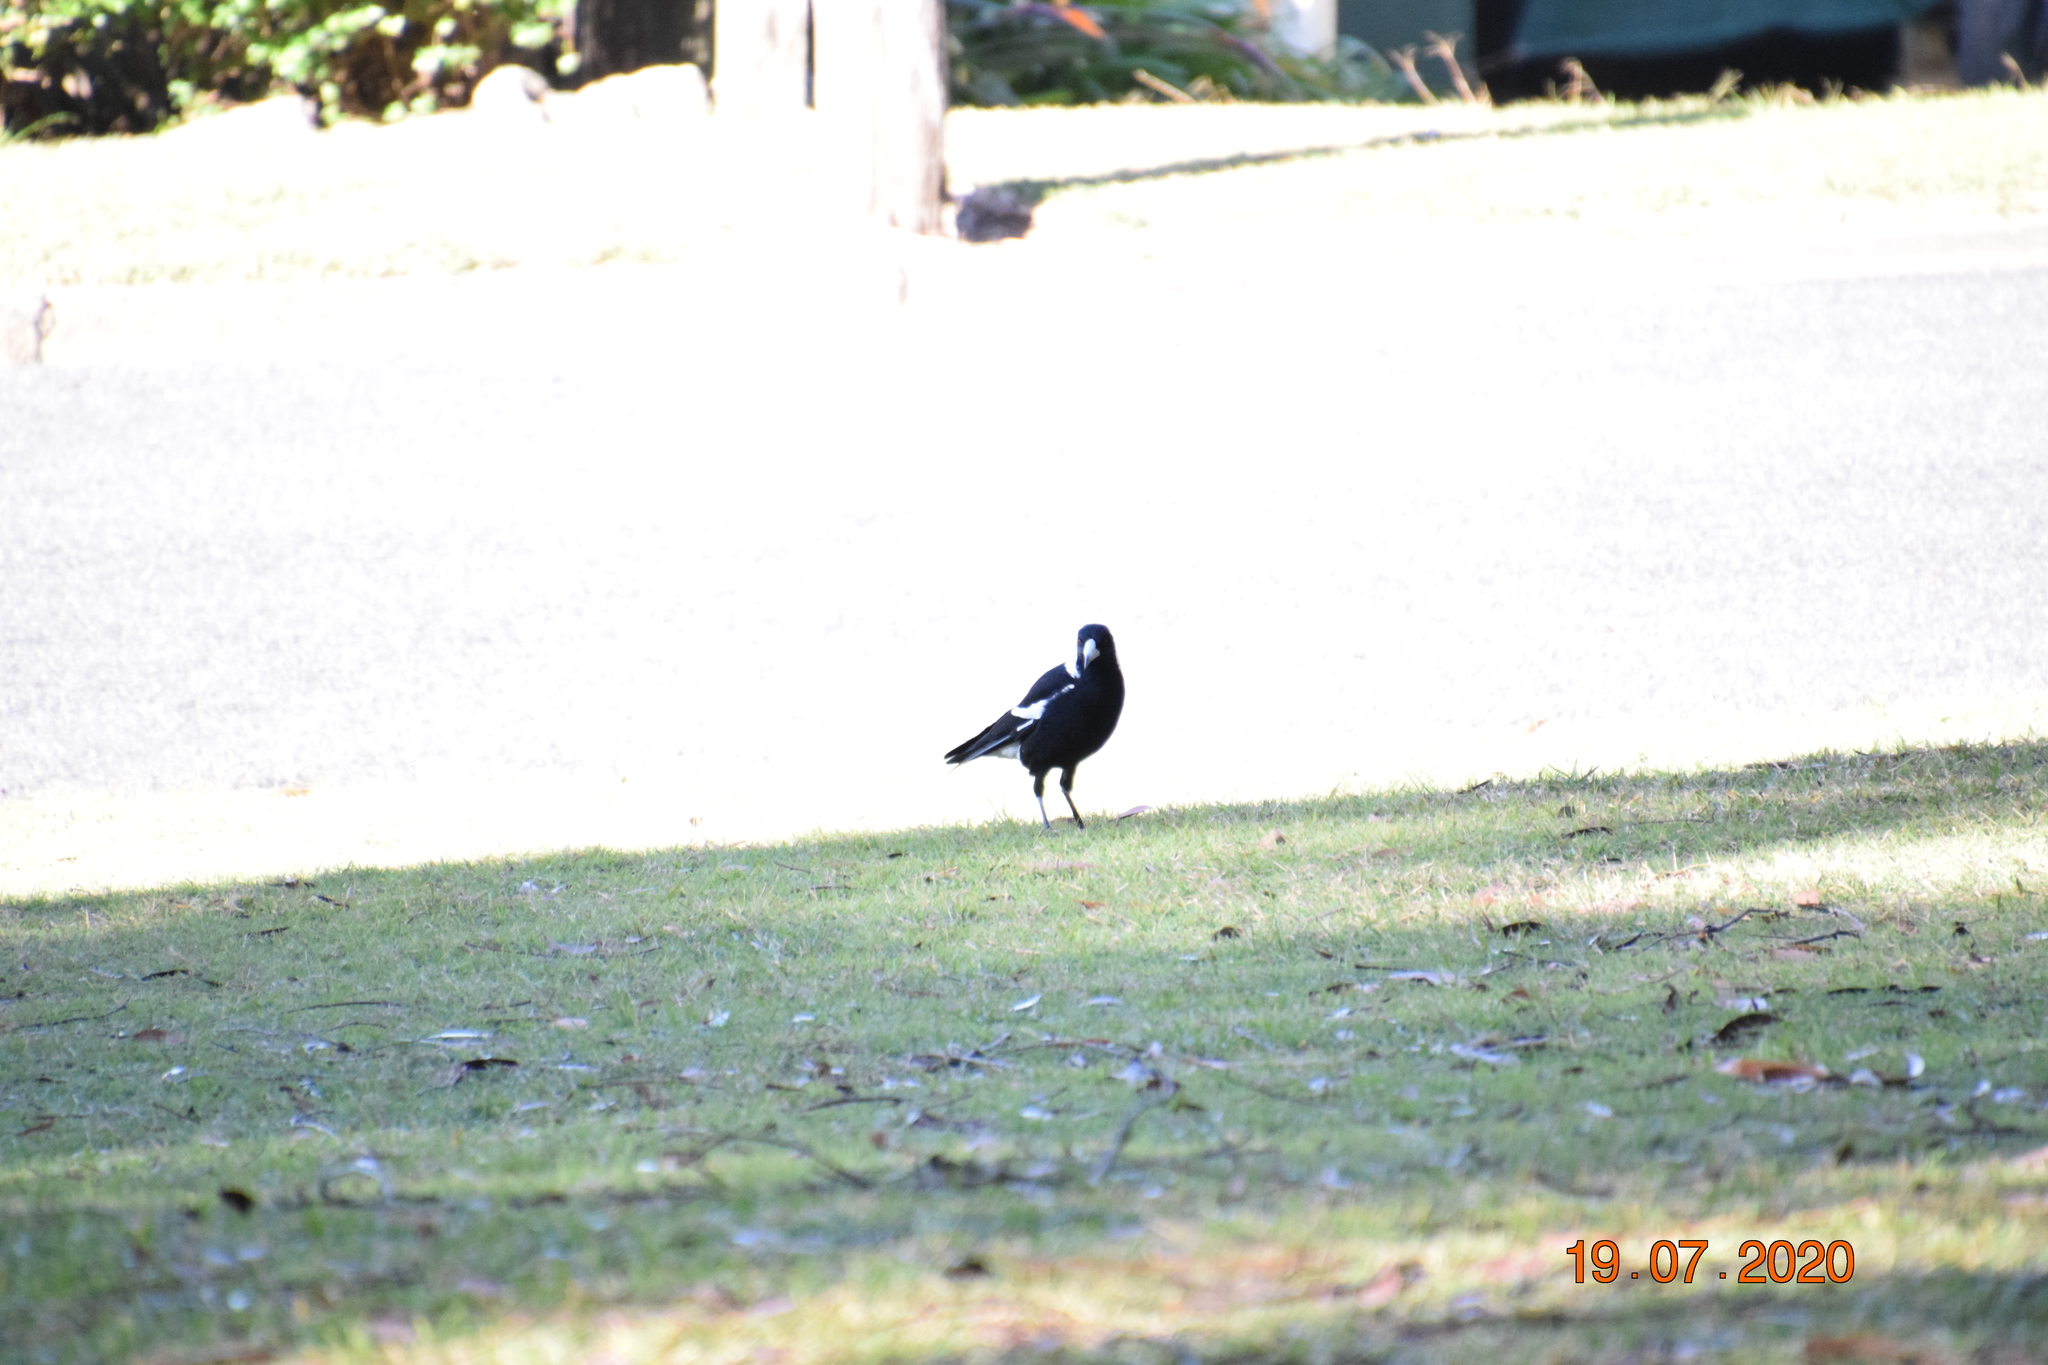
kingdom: Animalia
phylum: Chordata
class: Aves
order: Passeriformes
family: Cracticidae
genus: Gymnorhina
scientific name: Gymnorhina tibicen
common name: Australian magpie
